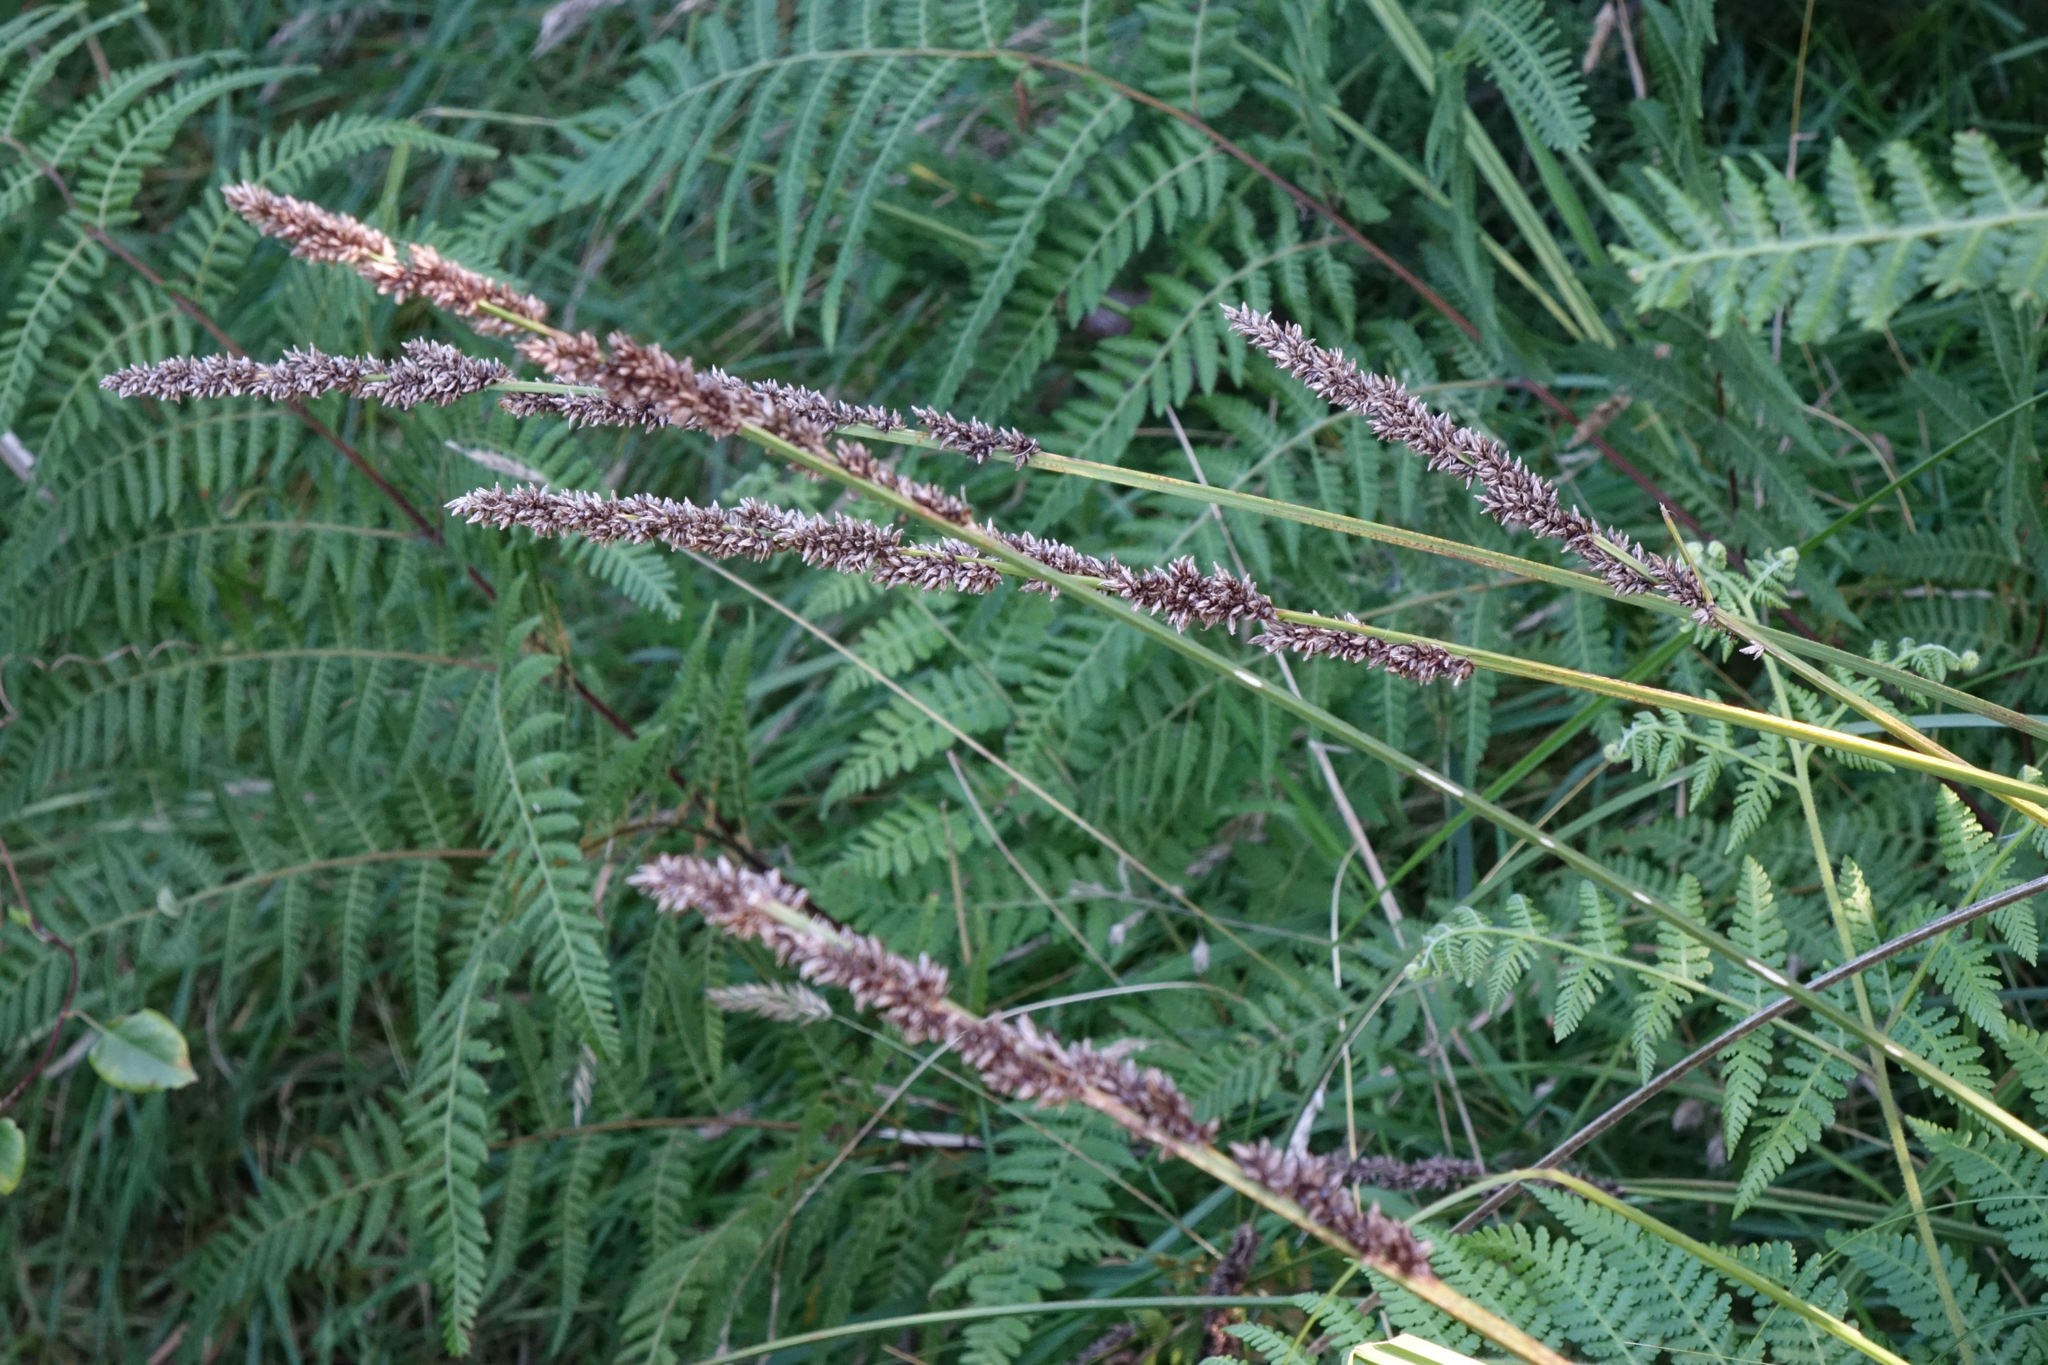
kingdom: Plantae
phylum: Tracheophyta
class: Liliopsida
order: Poales
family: Cyperaceae
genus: Carex
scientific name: Carex appressa
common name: Tussock sedge
